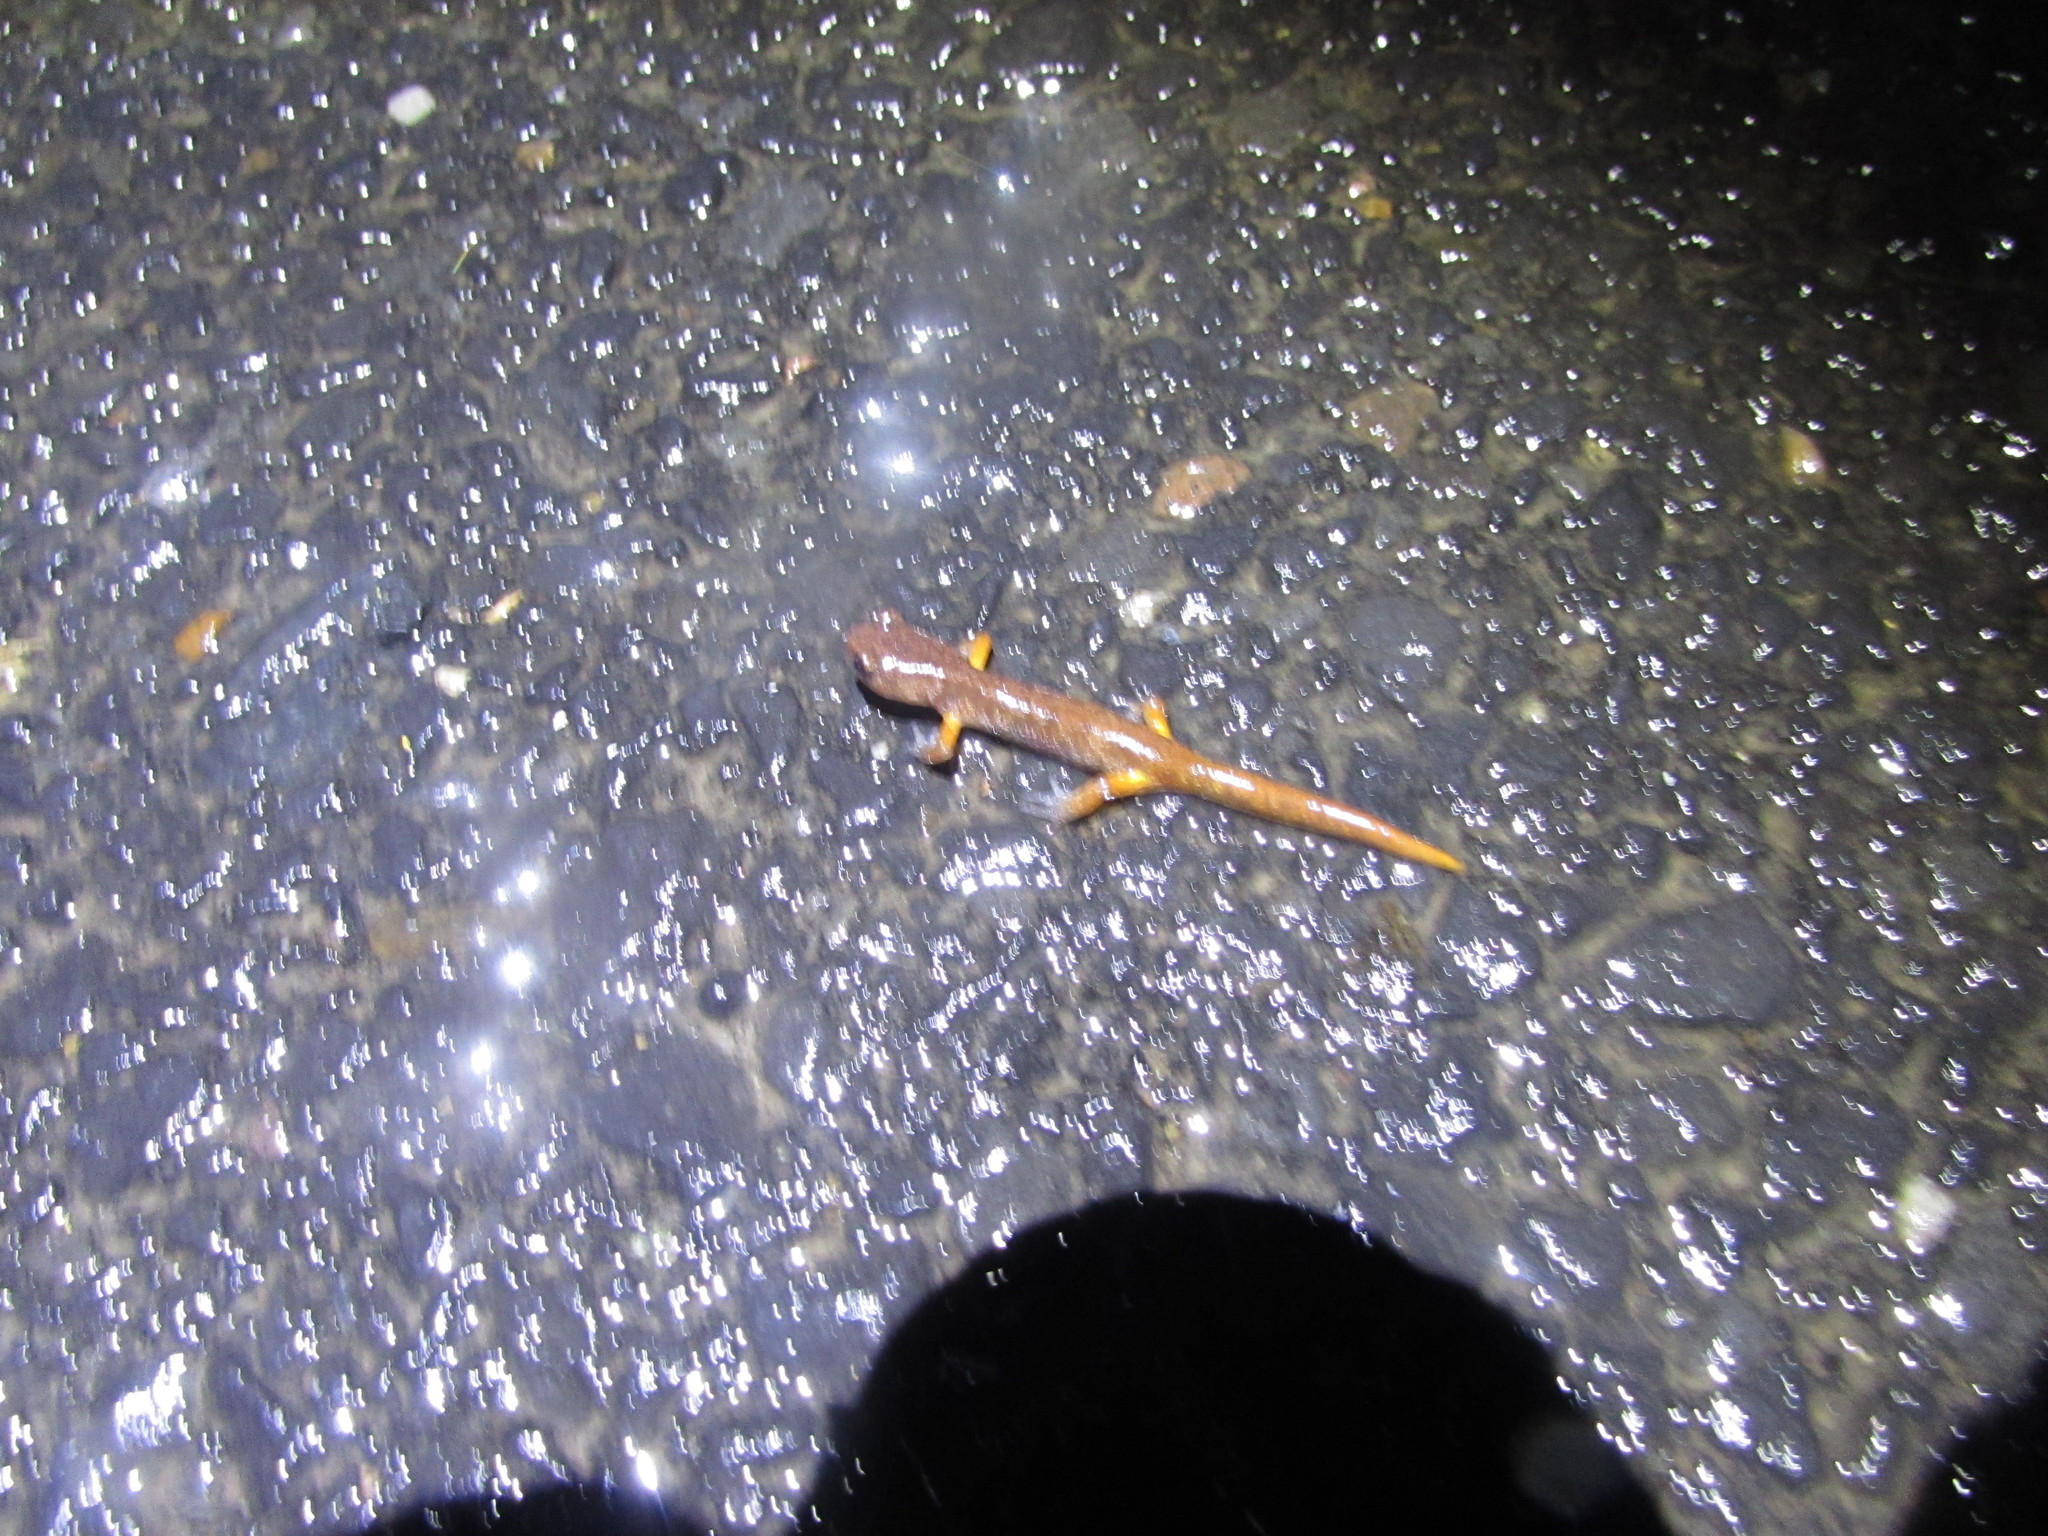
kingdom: Animalia
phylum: Chordata
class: Amphibia
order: Caudata
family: Plethodontidae
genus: Ensatina
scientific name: Ensatina eschscholtzii
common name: Ensatina
